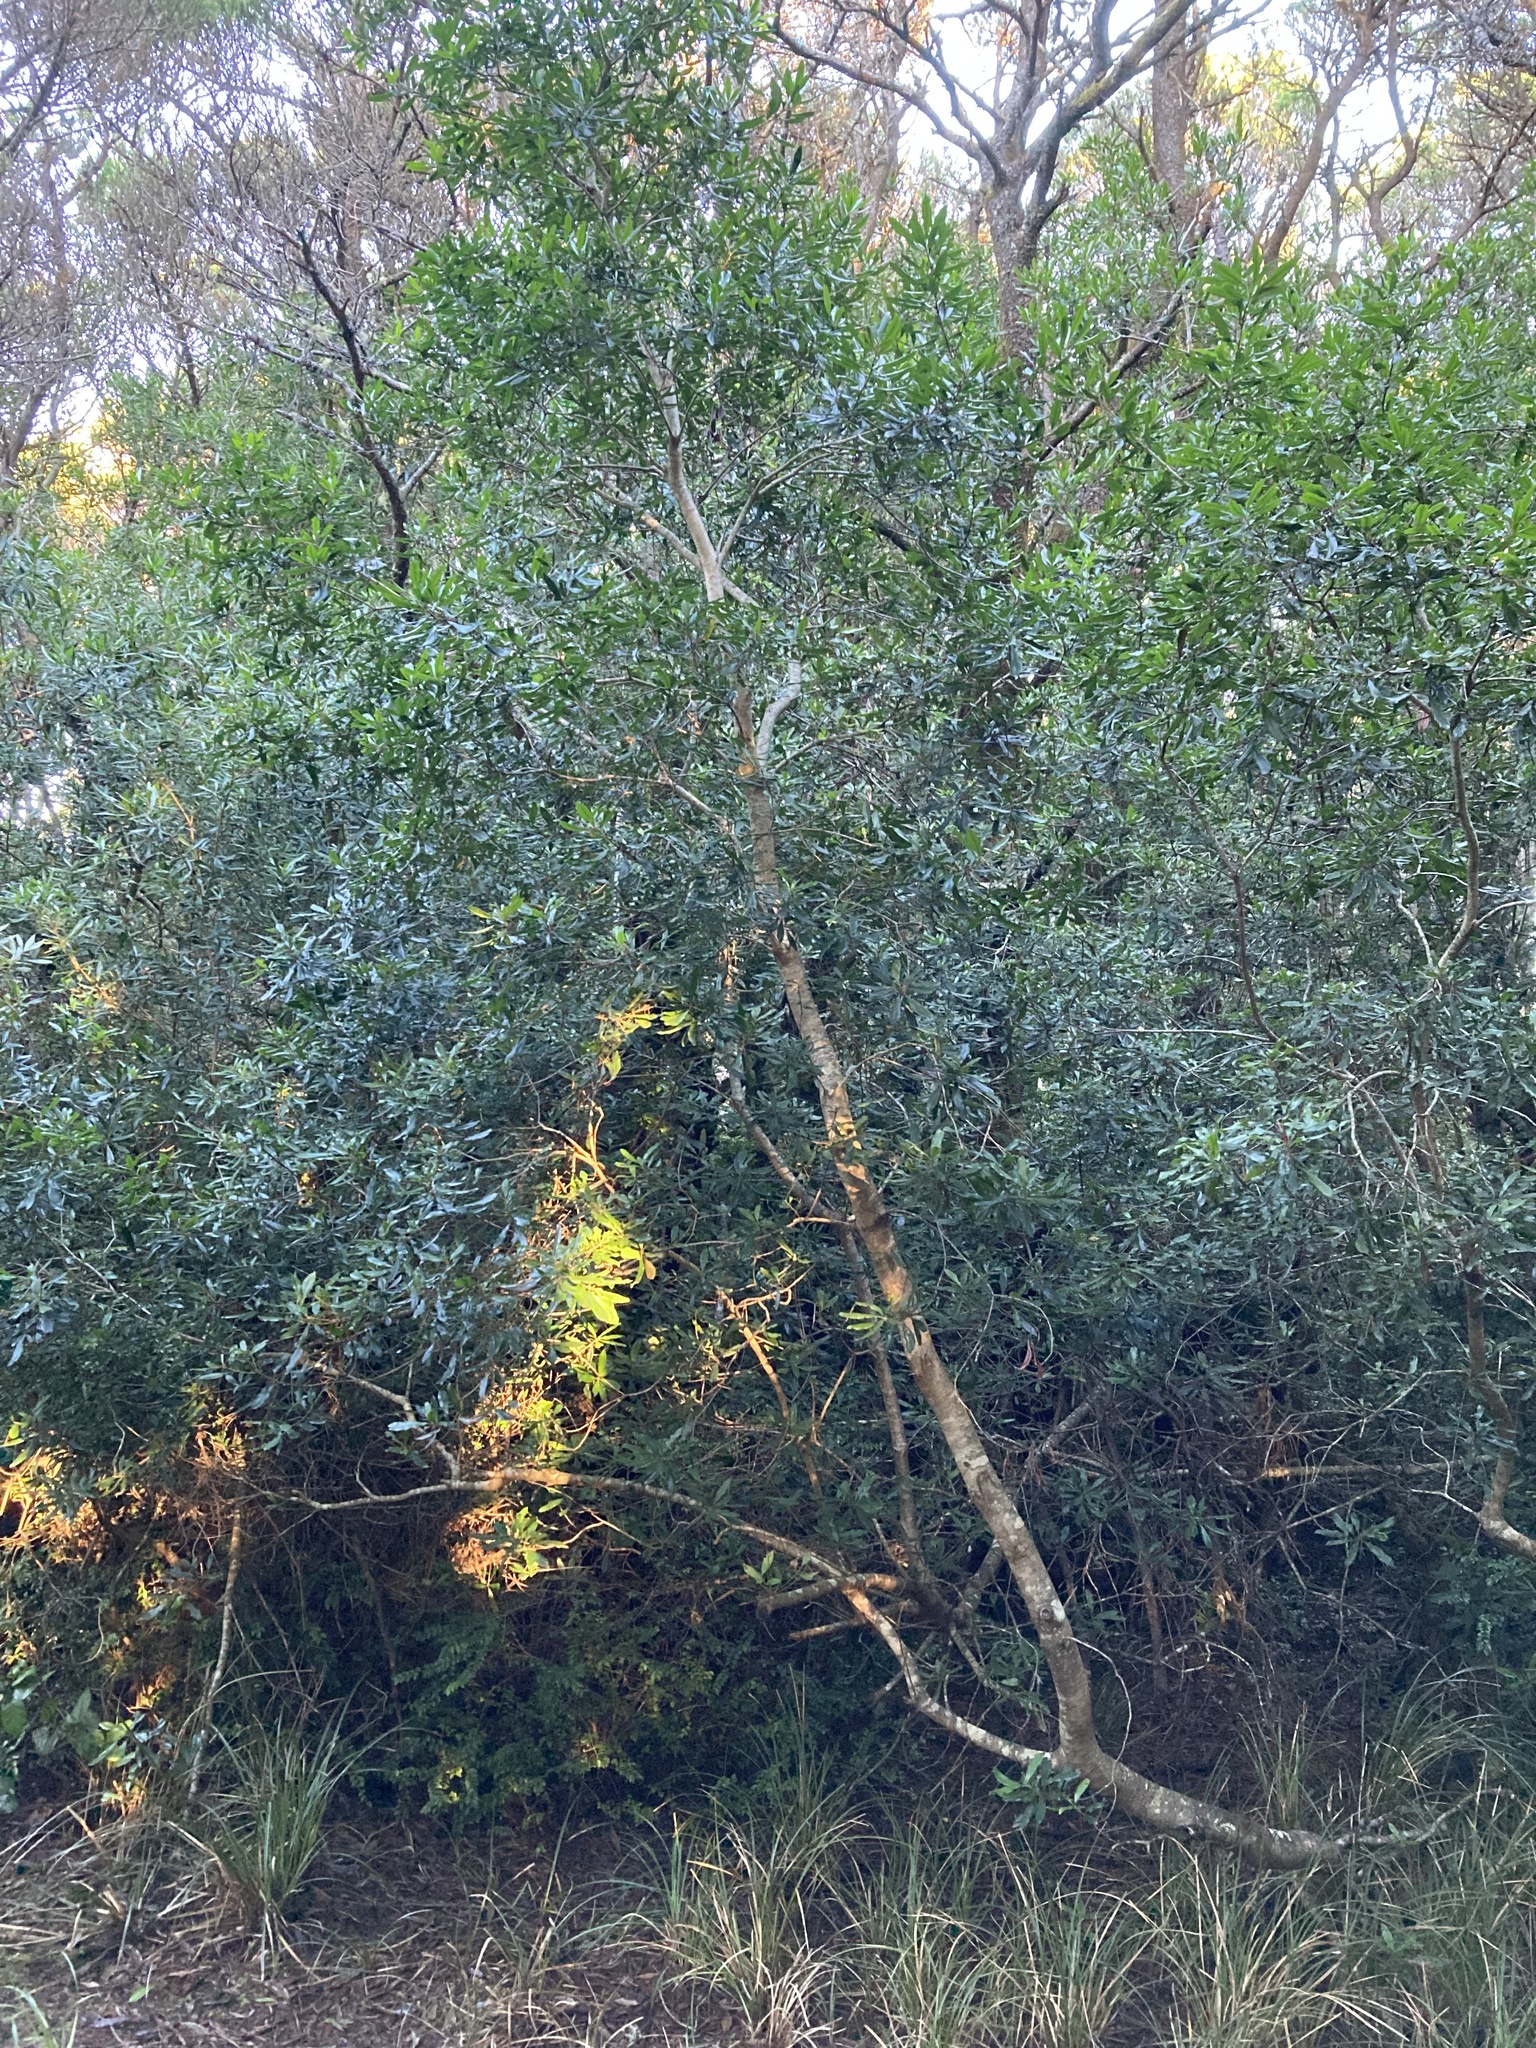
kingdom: Plantae
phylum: Tracheophyta
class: Magnoliopsida
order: Fagales
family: Myricaceae
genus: Morella
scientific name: Morella californica
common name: California wax-myrtle
